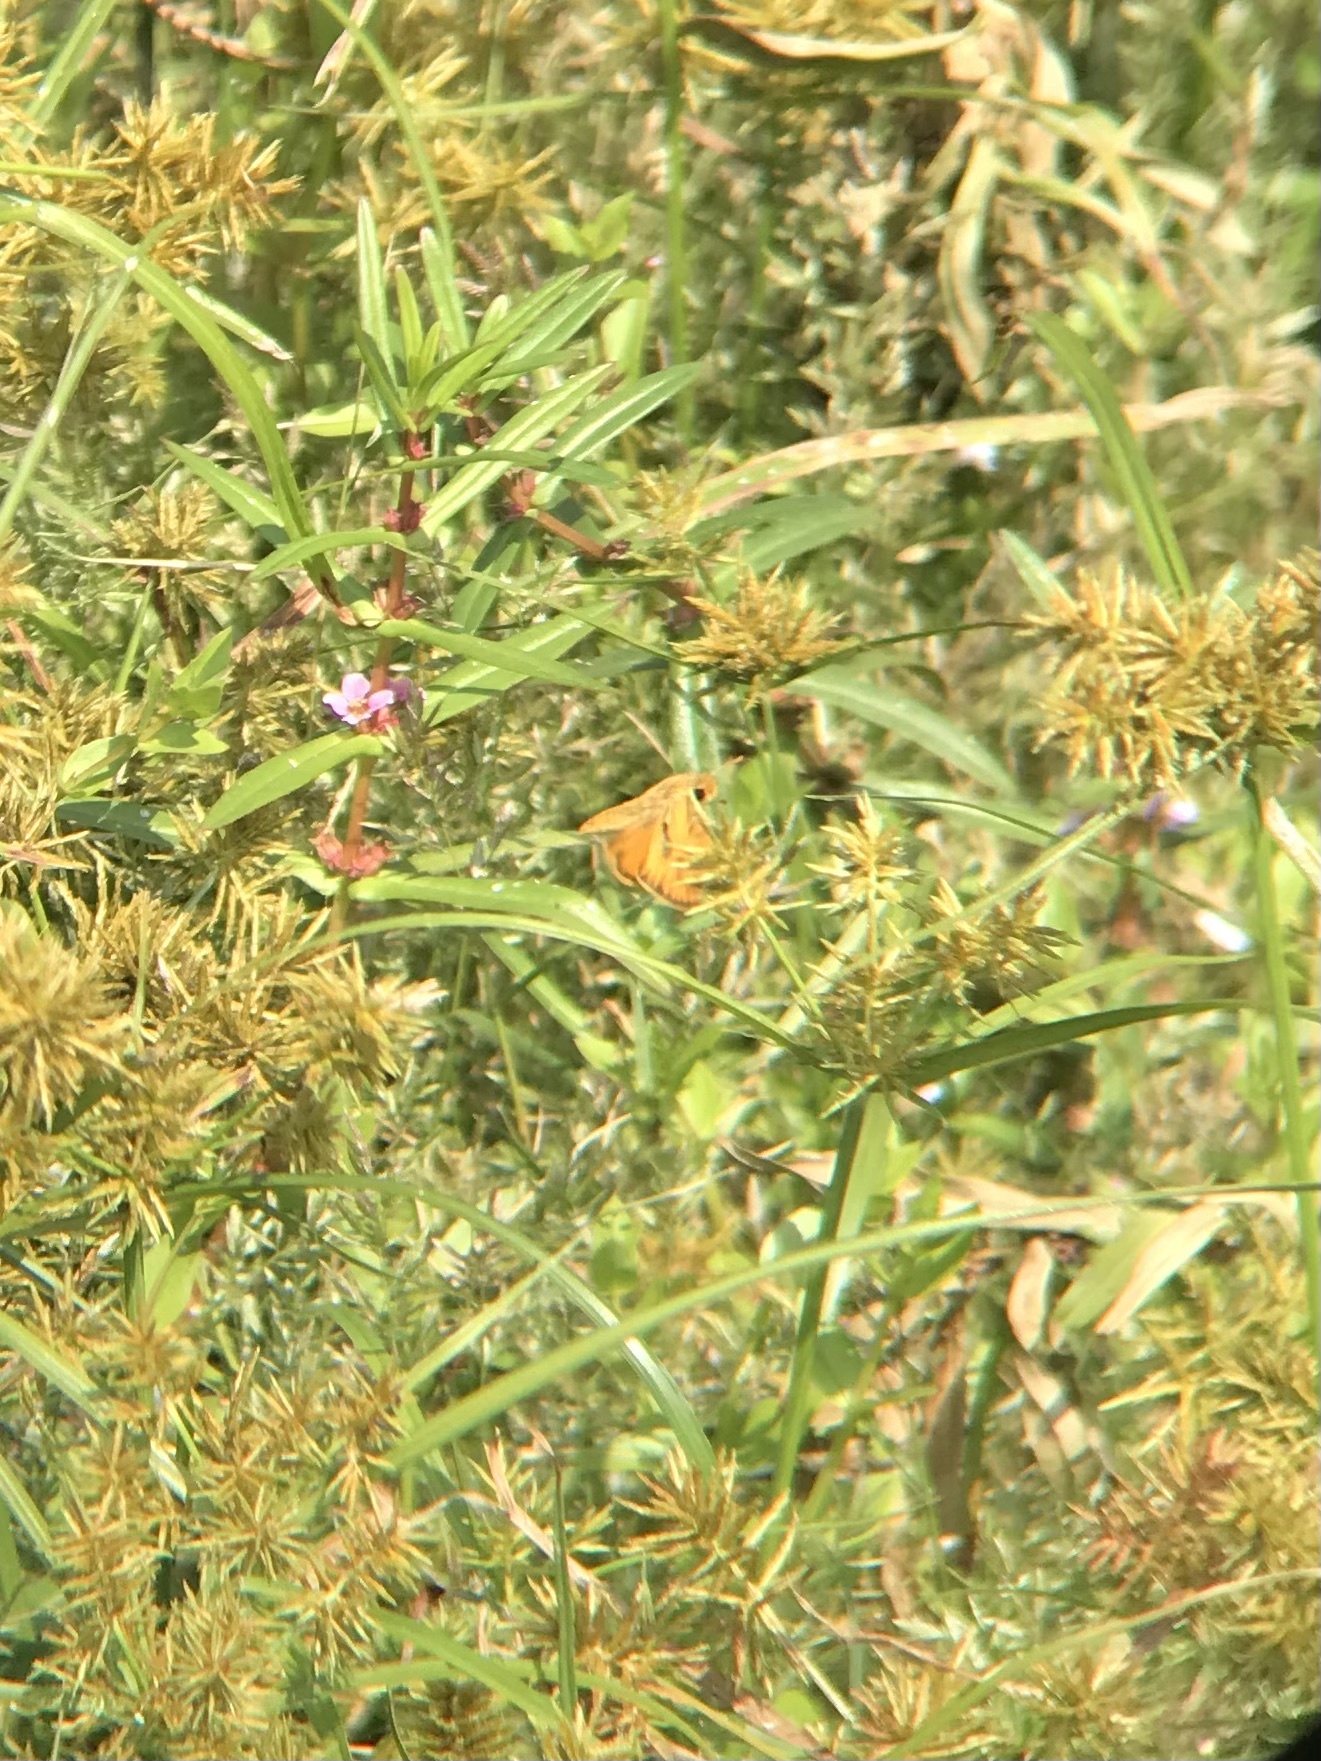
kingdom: Animalia
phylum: Arthropoda
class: Insecta
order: Lepidoptera
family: Hesperiidae
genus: Hylephila
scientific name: Hylephila phyleus
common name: Fiery skipper
